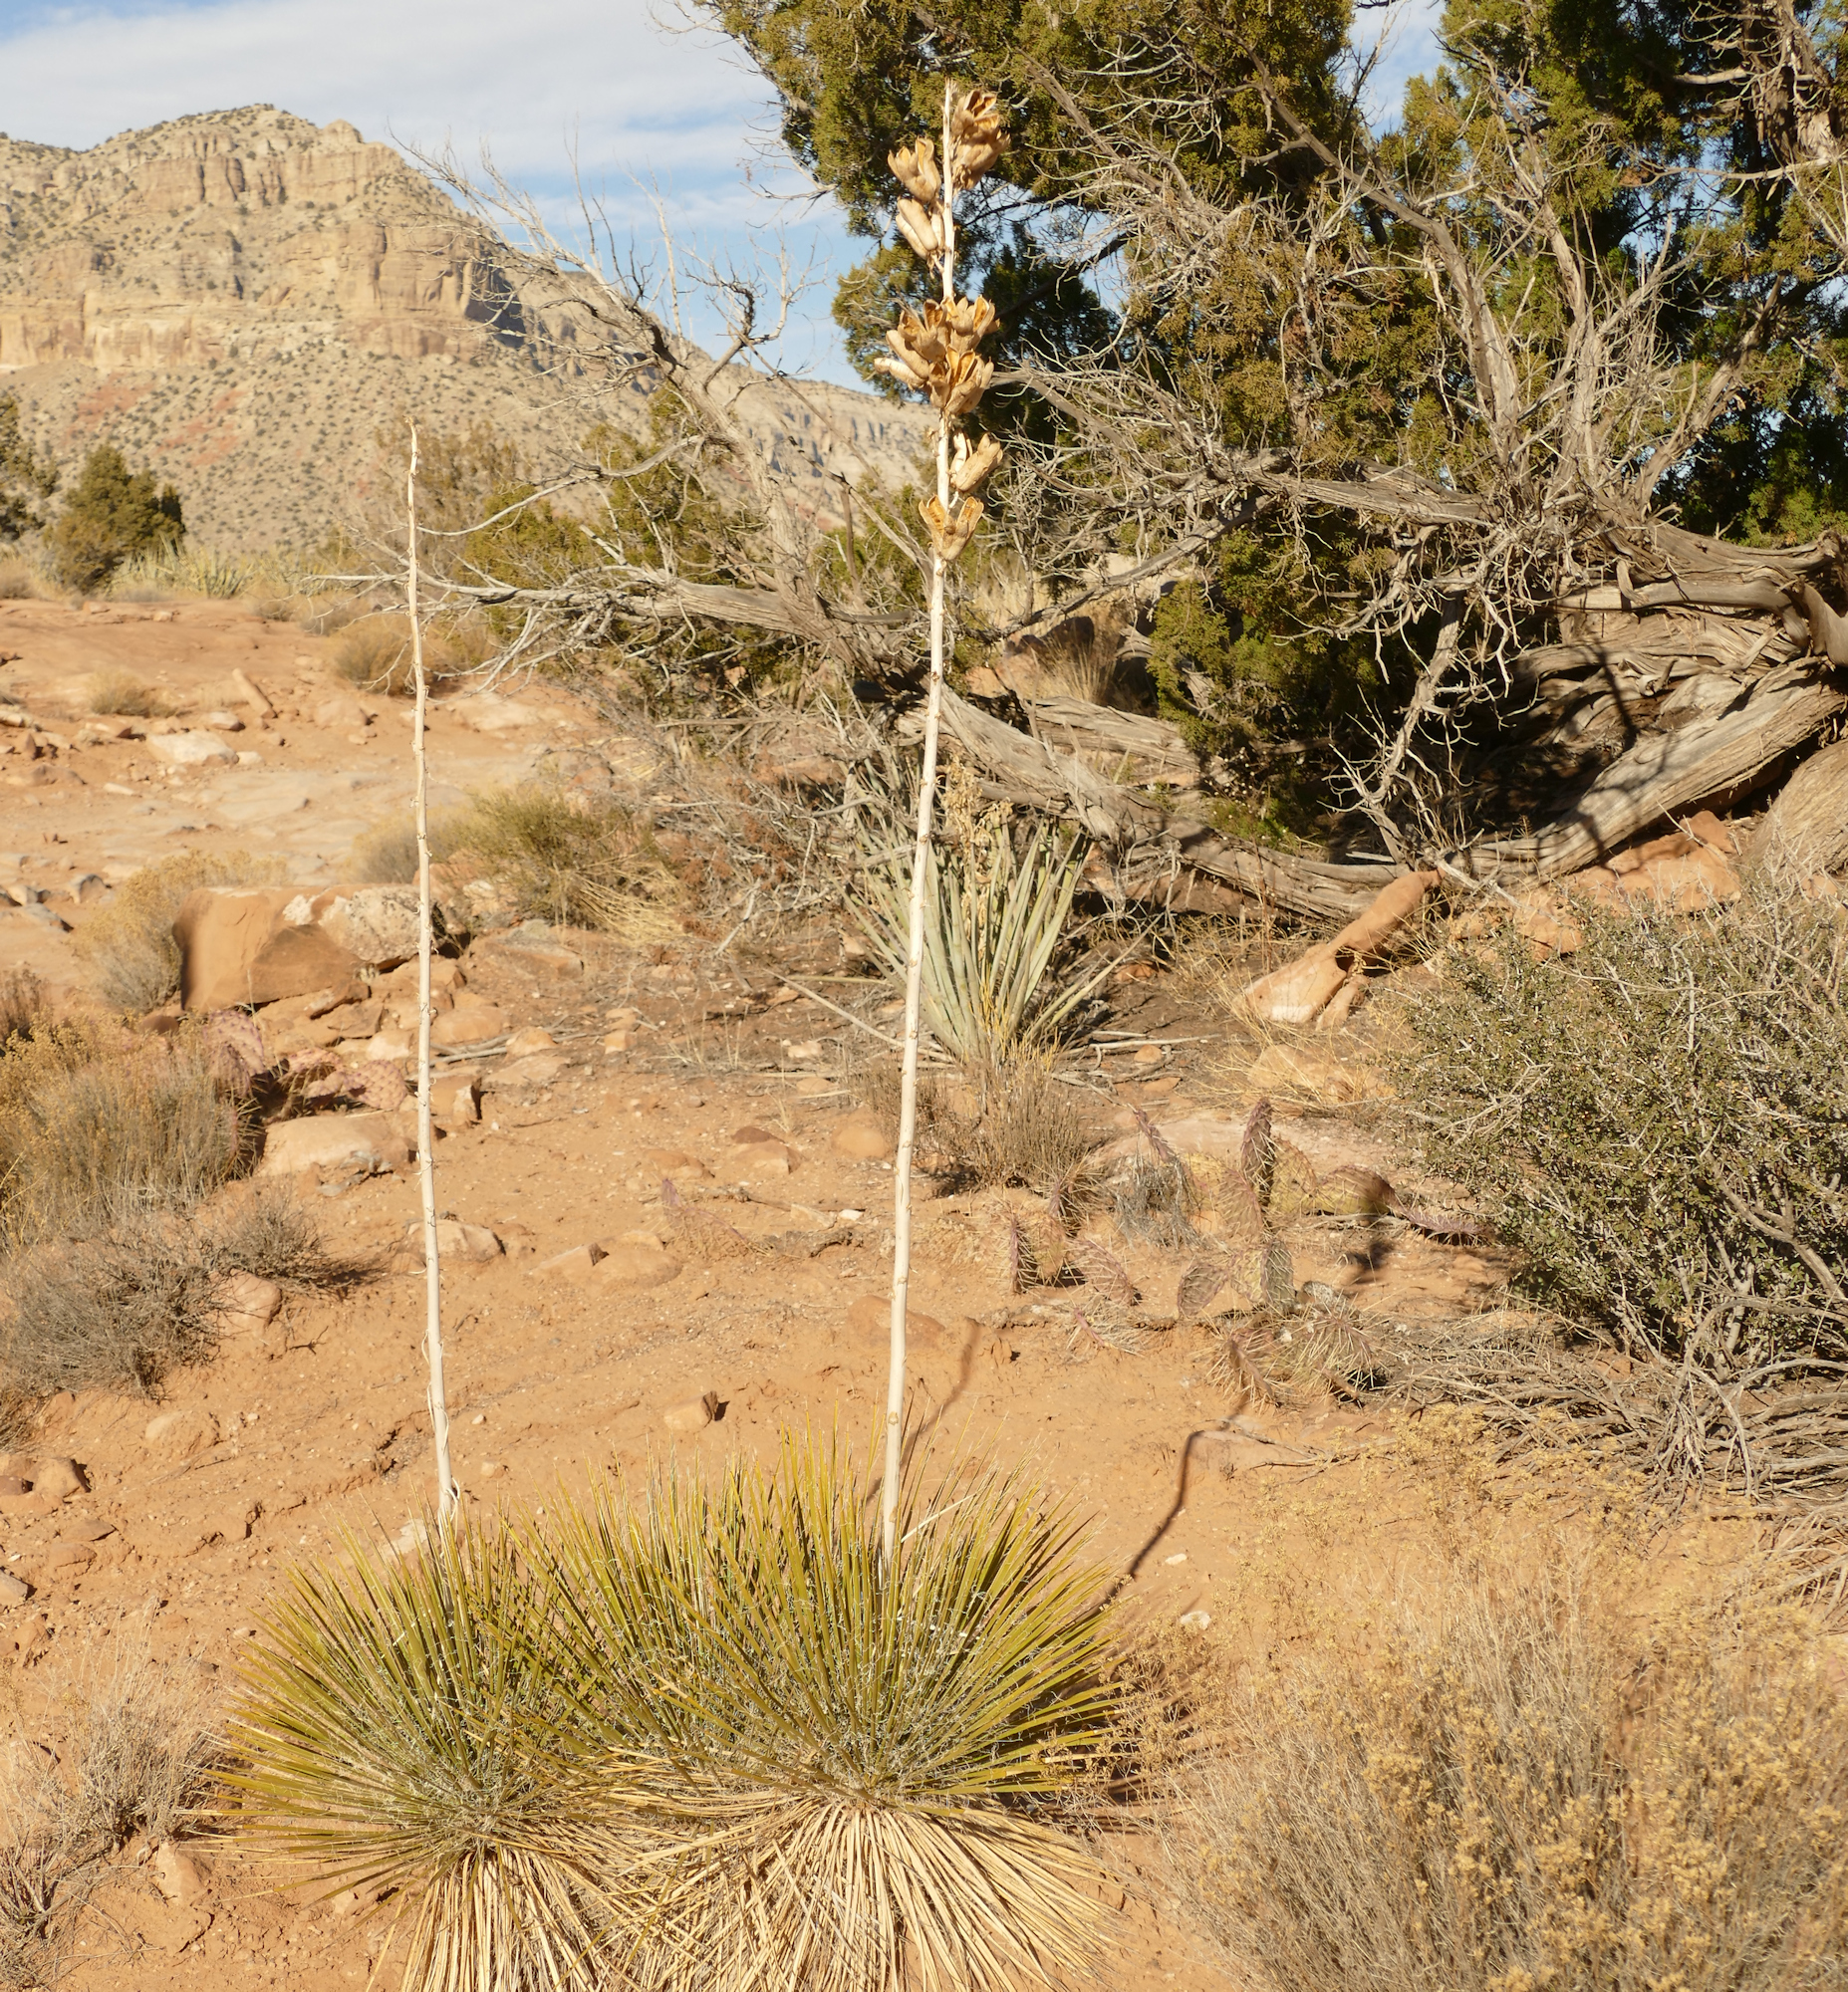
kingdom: Plantae
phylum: Tracheophyta
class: Liliopsida
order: Asparagales
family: Asparagaceae
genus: Yucca
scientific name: Yucca angustissima
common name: Narrowleaf yucca
